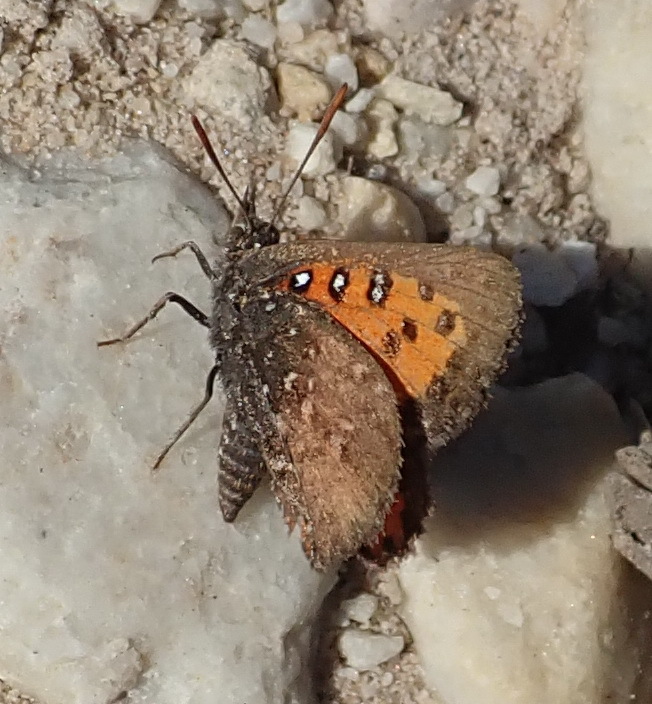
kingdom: Animalia
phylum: Arthropoda
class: Insecta
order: Lepidoptera
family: Lycaenidae
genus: Aloeides
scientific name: Aloeides thyra
